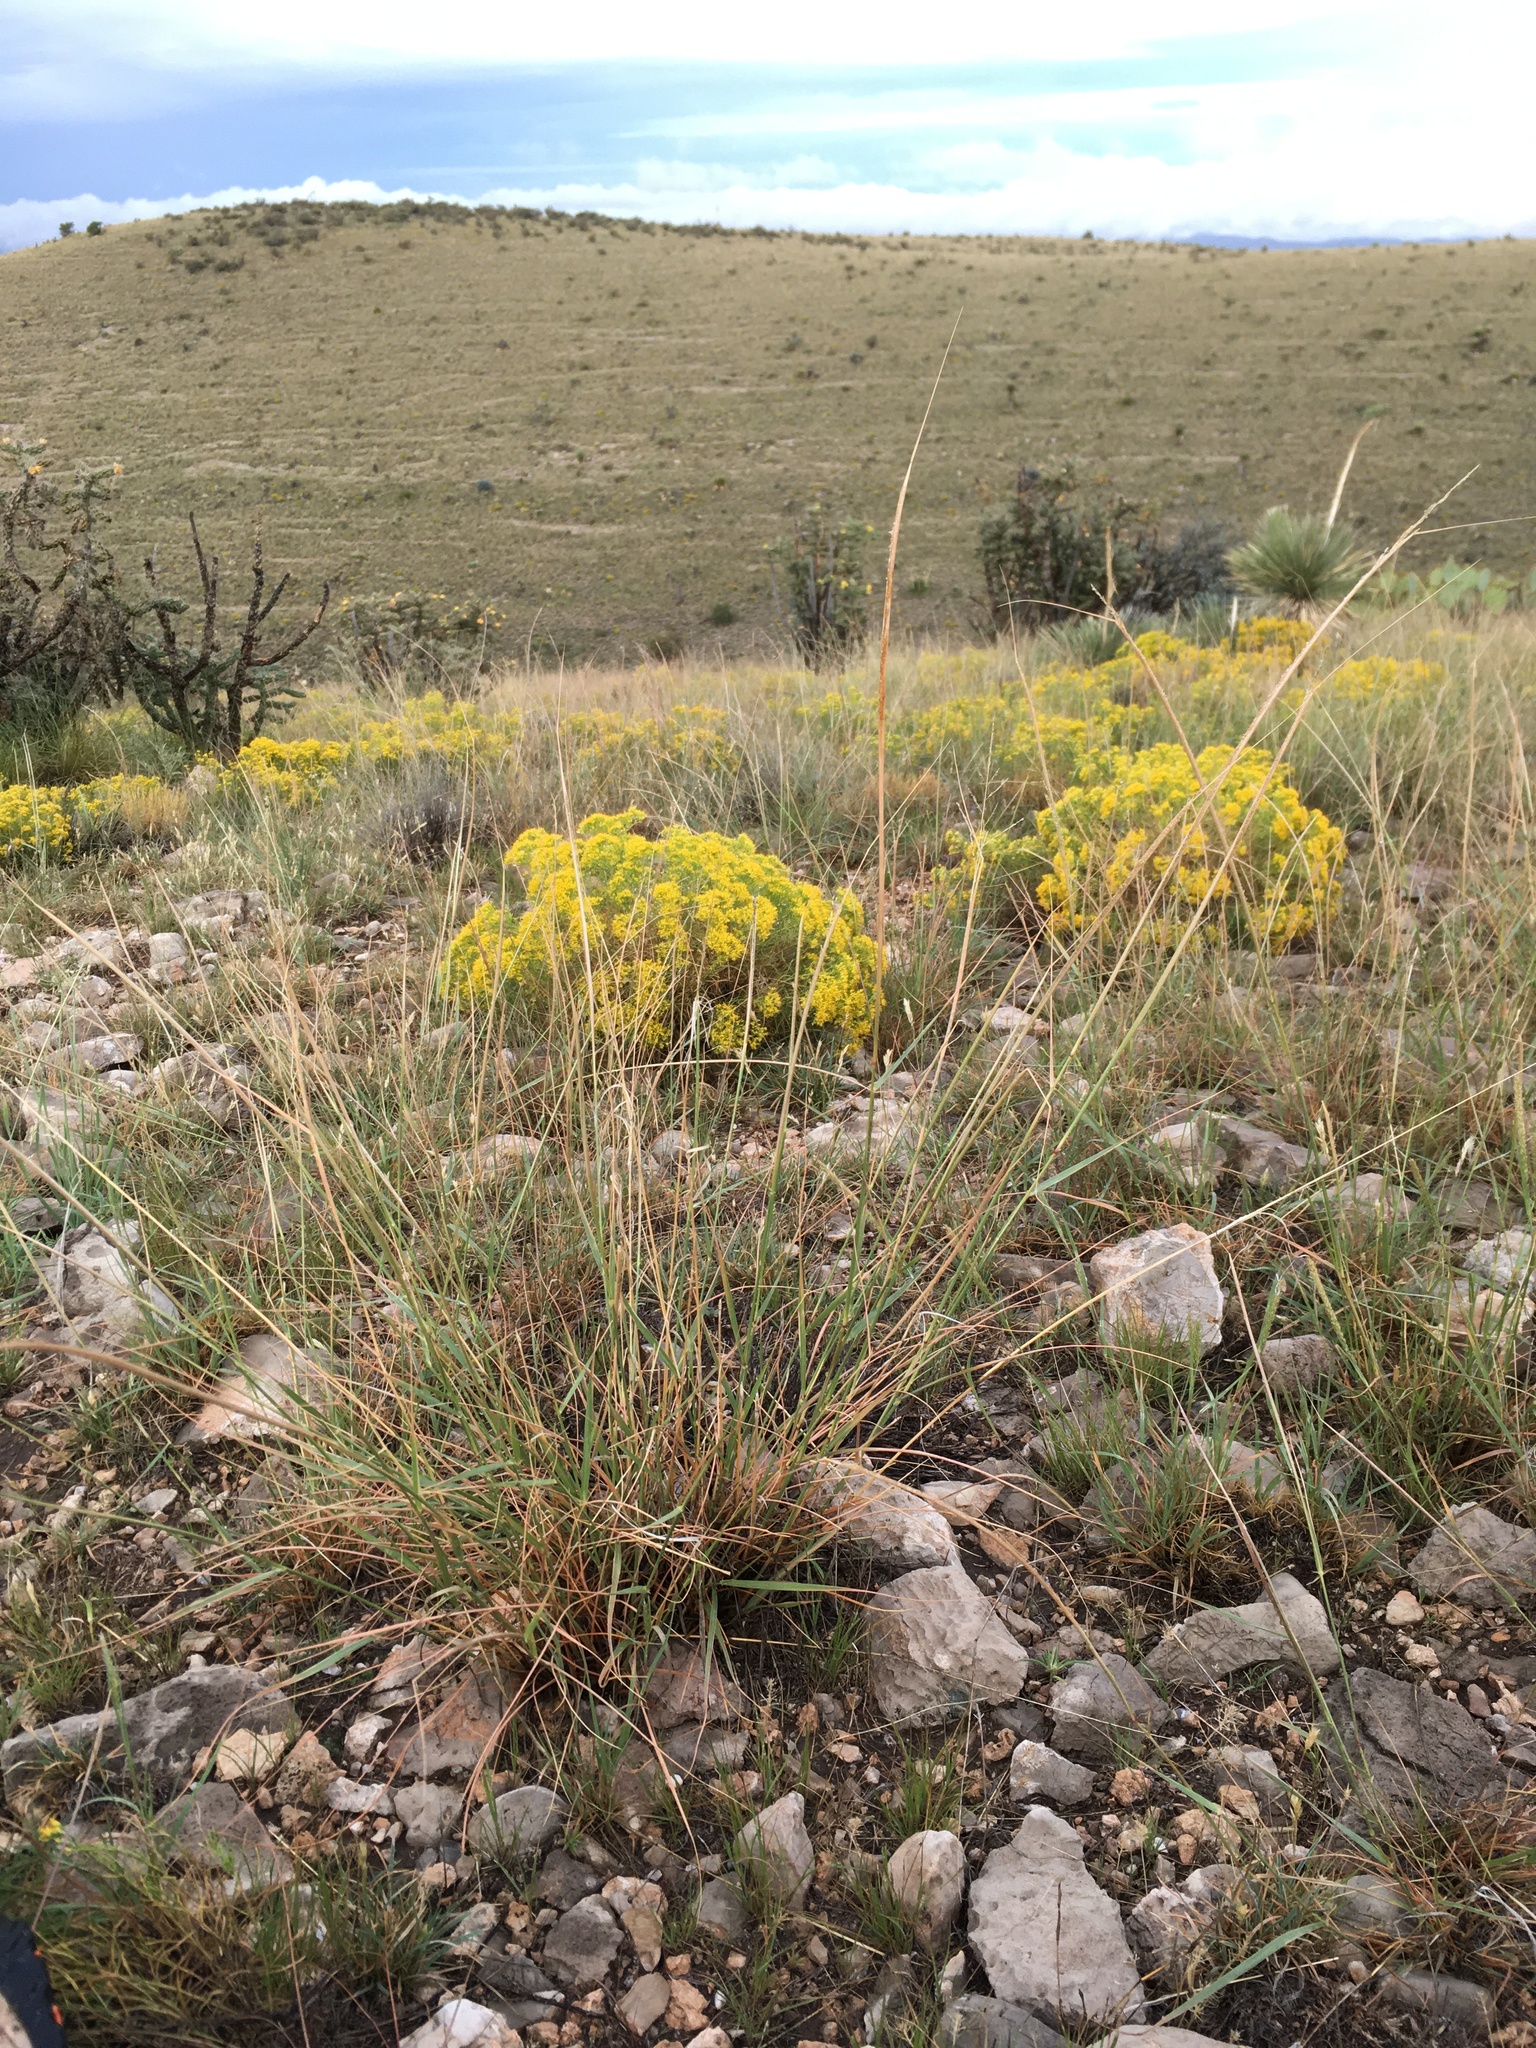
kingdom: Plantae
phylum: Tracheophyta
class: Liliopsida
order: Poales
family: Poaceae
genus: Sporobolus
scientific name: Sporobolus cryptandrus
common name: Sand dropseed
